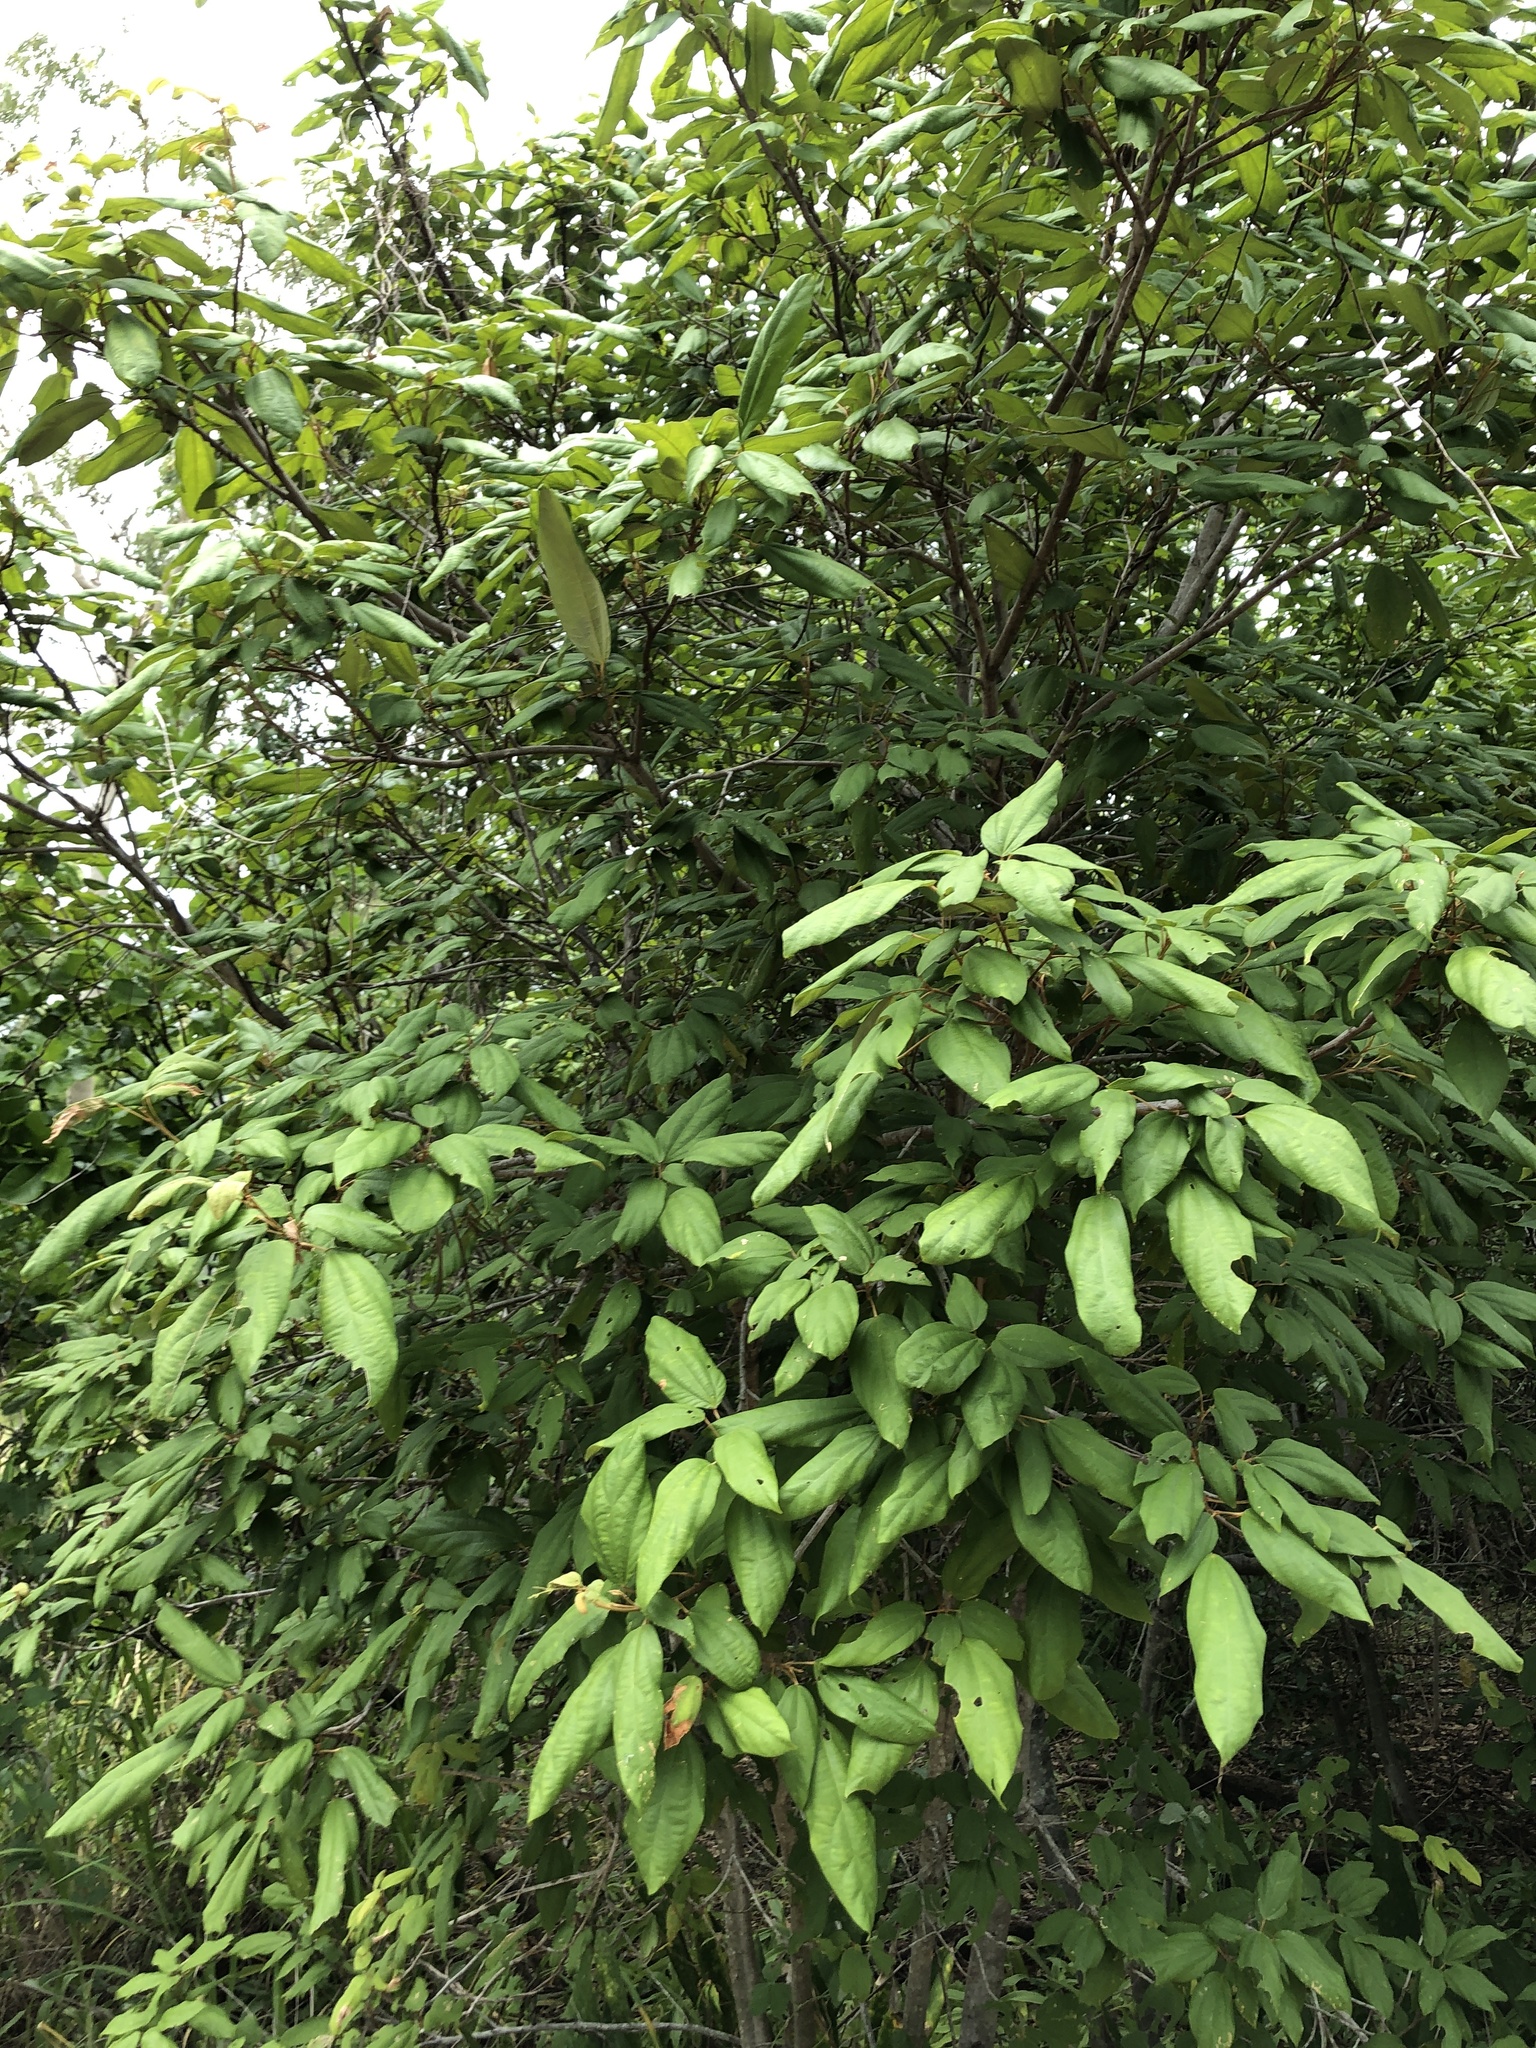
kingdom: Plantae
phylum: Tracheophyta
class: Magnoliopsida
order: Malpighiales
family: Euphorbiaceae
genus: Mallotus
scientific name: Mallotus philippensis
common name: Kamala tree
